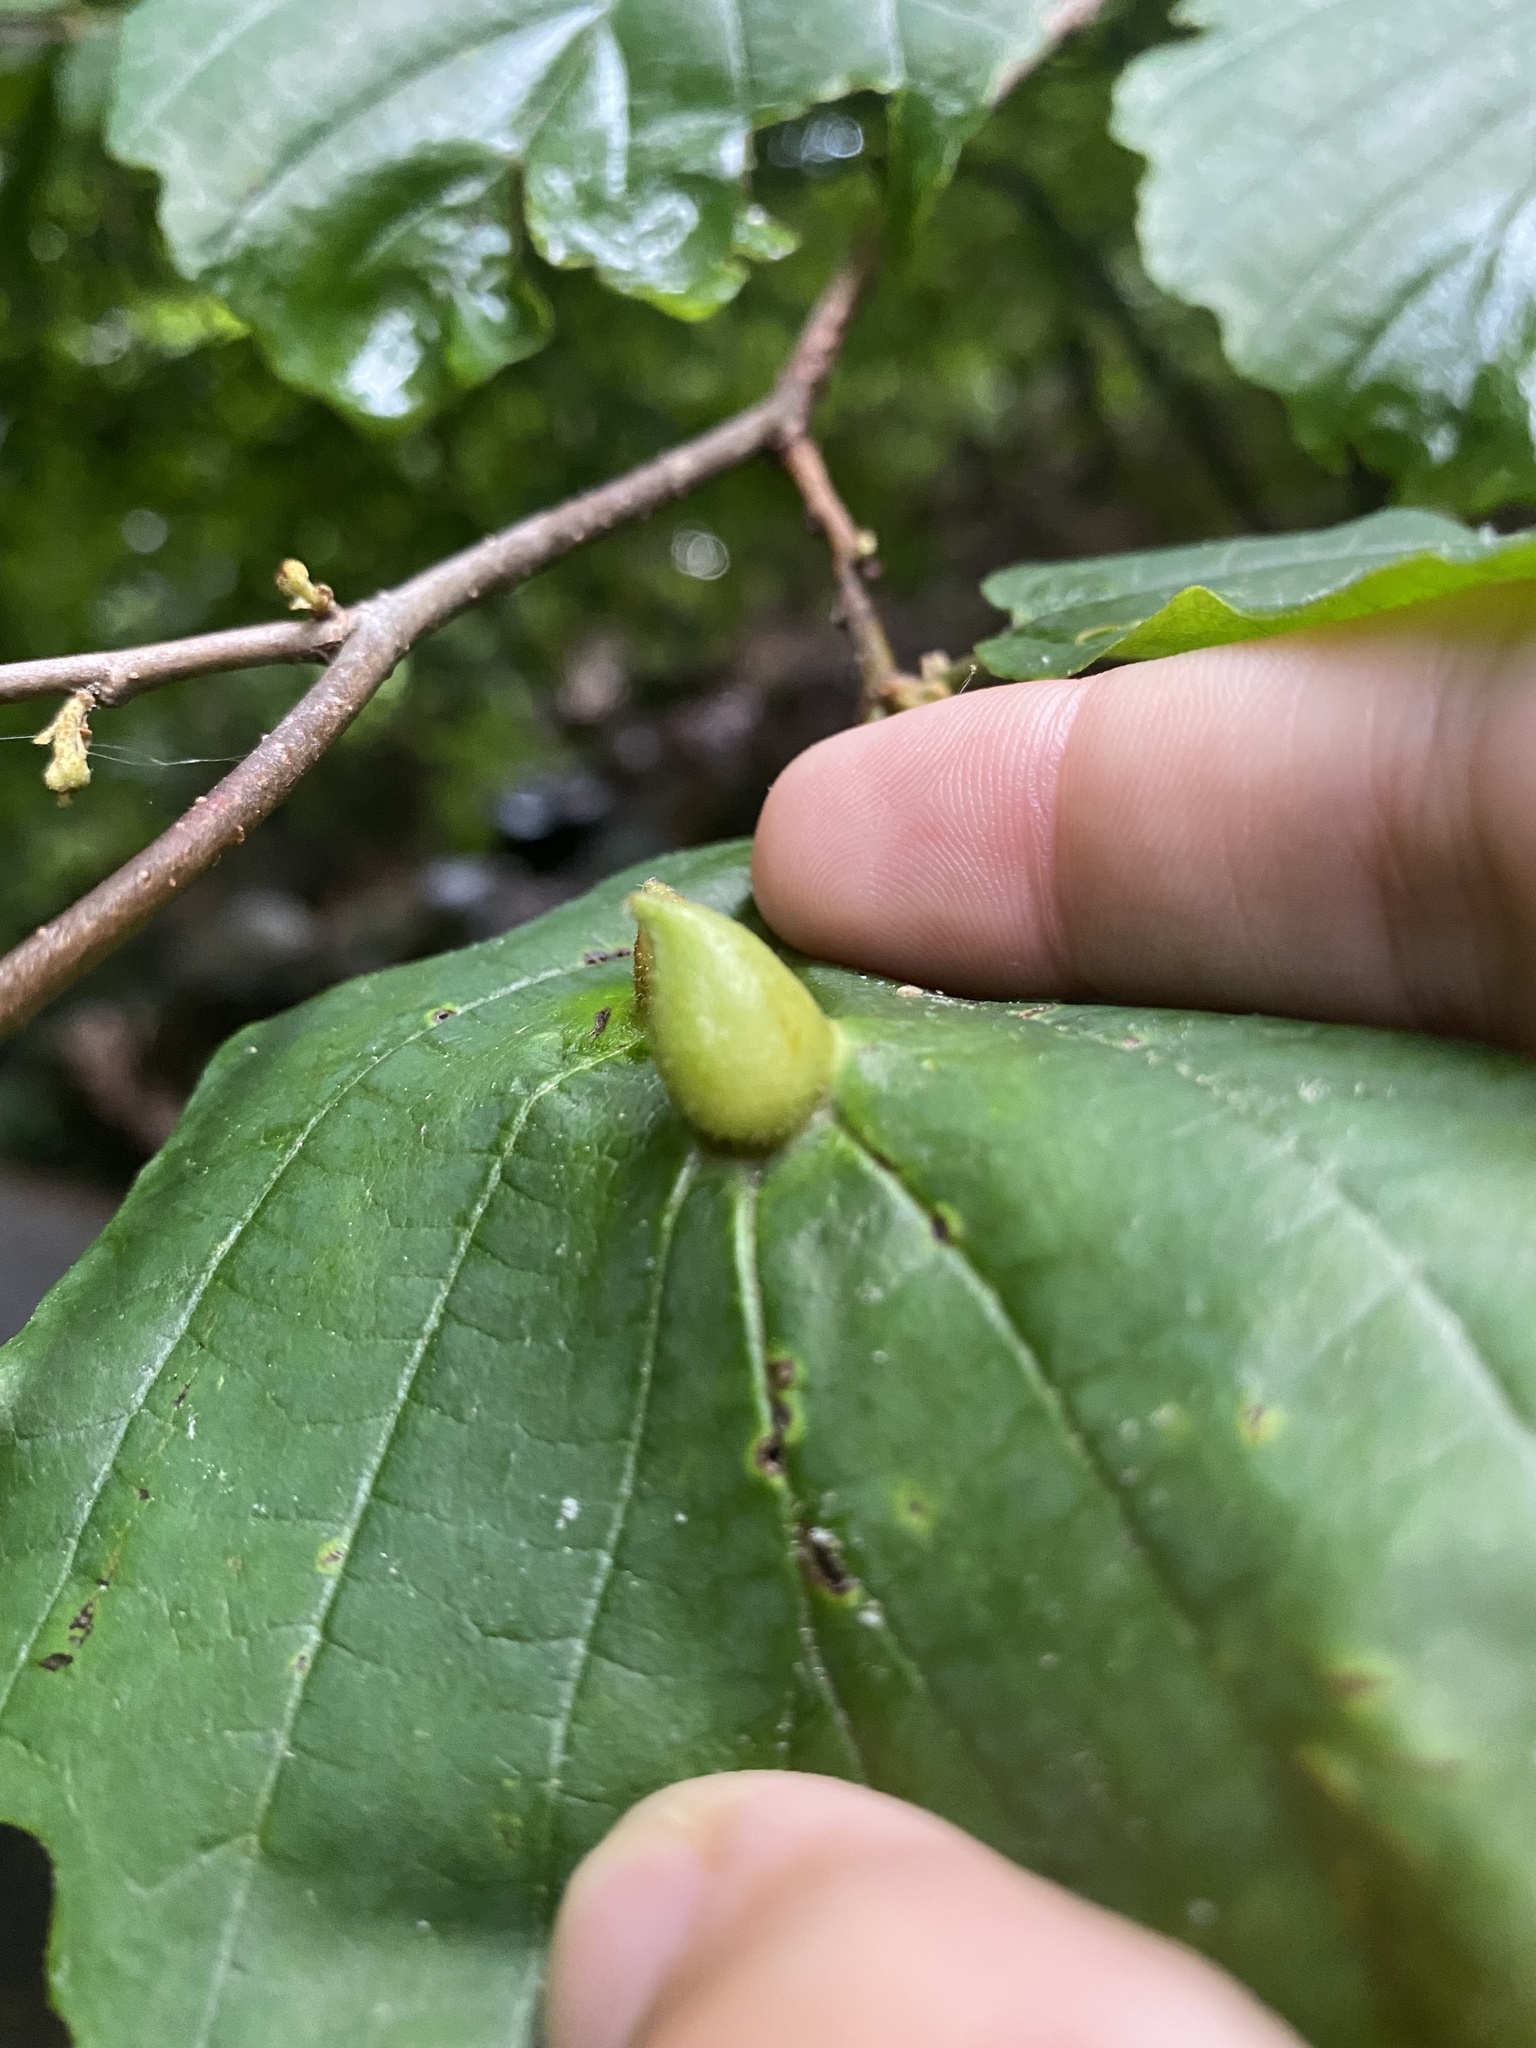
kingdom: Animalia
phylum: Arthropoda
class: Insecta
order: Hemiptera
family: Aphididae
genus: Hormaphis
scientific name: Hormaphis hamamelidis
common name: Witch-hazel cone gall aphid
